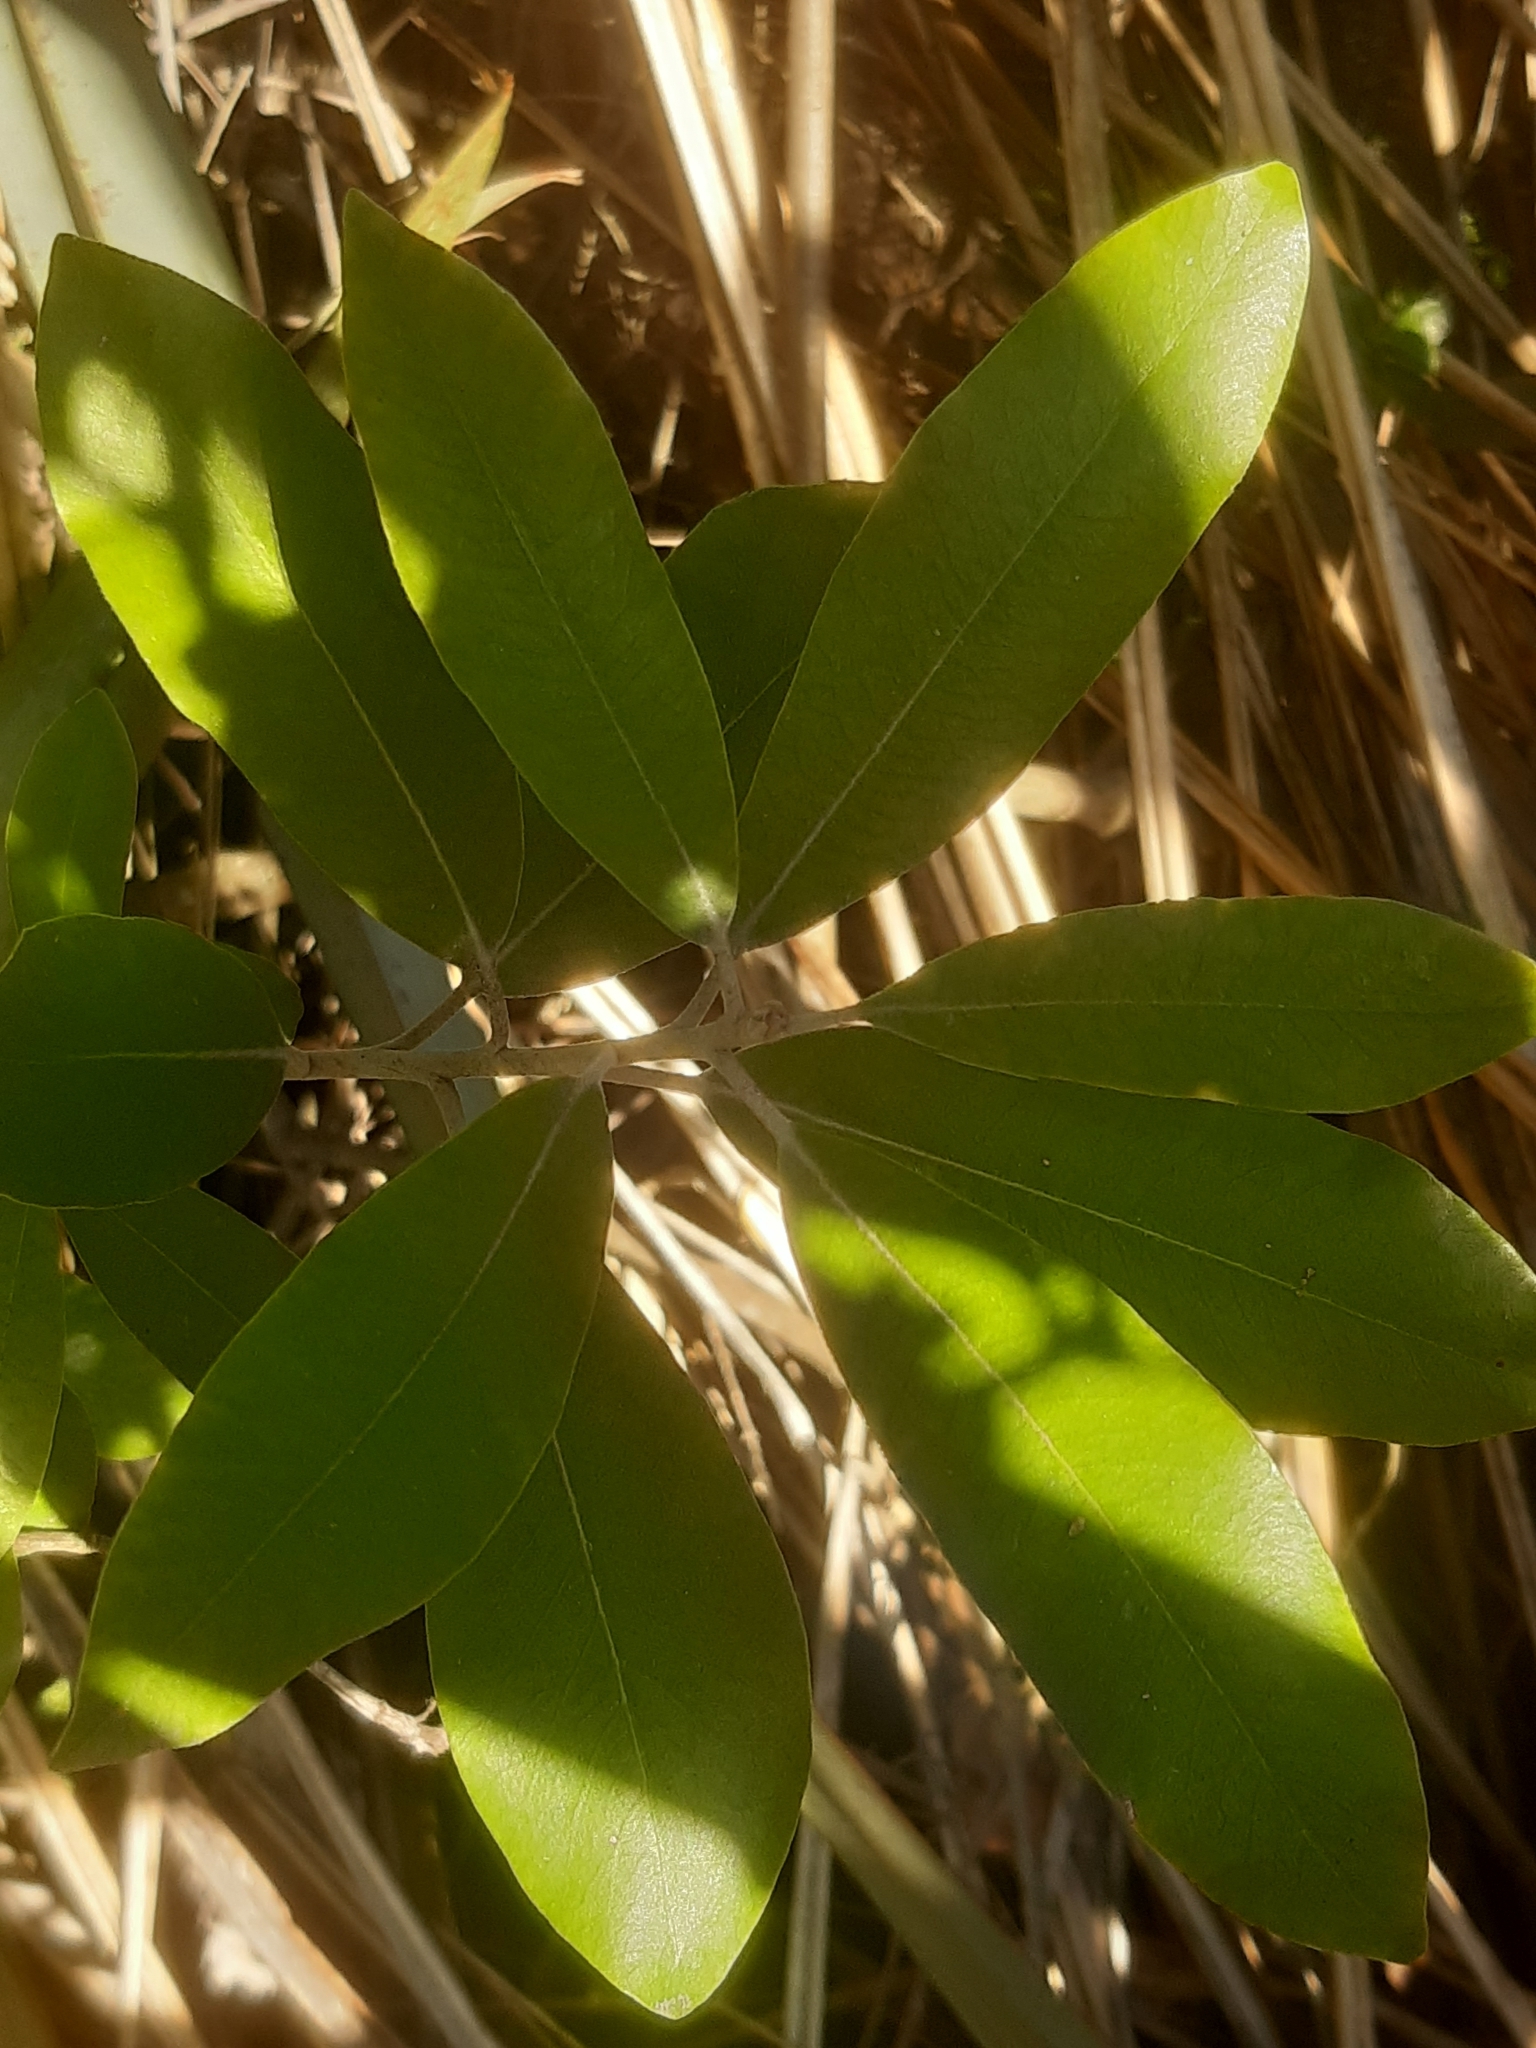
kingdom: Plantae
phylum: Tracheophyta
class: Magnoliopsida
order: Apiales
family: Pittosporaceae
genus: Pittosporum
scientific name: Pittosporum ralphii
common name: Ralph's desertwillow
